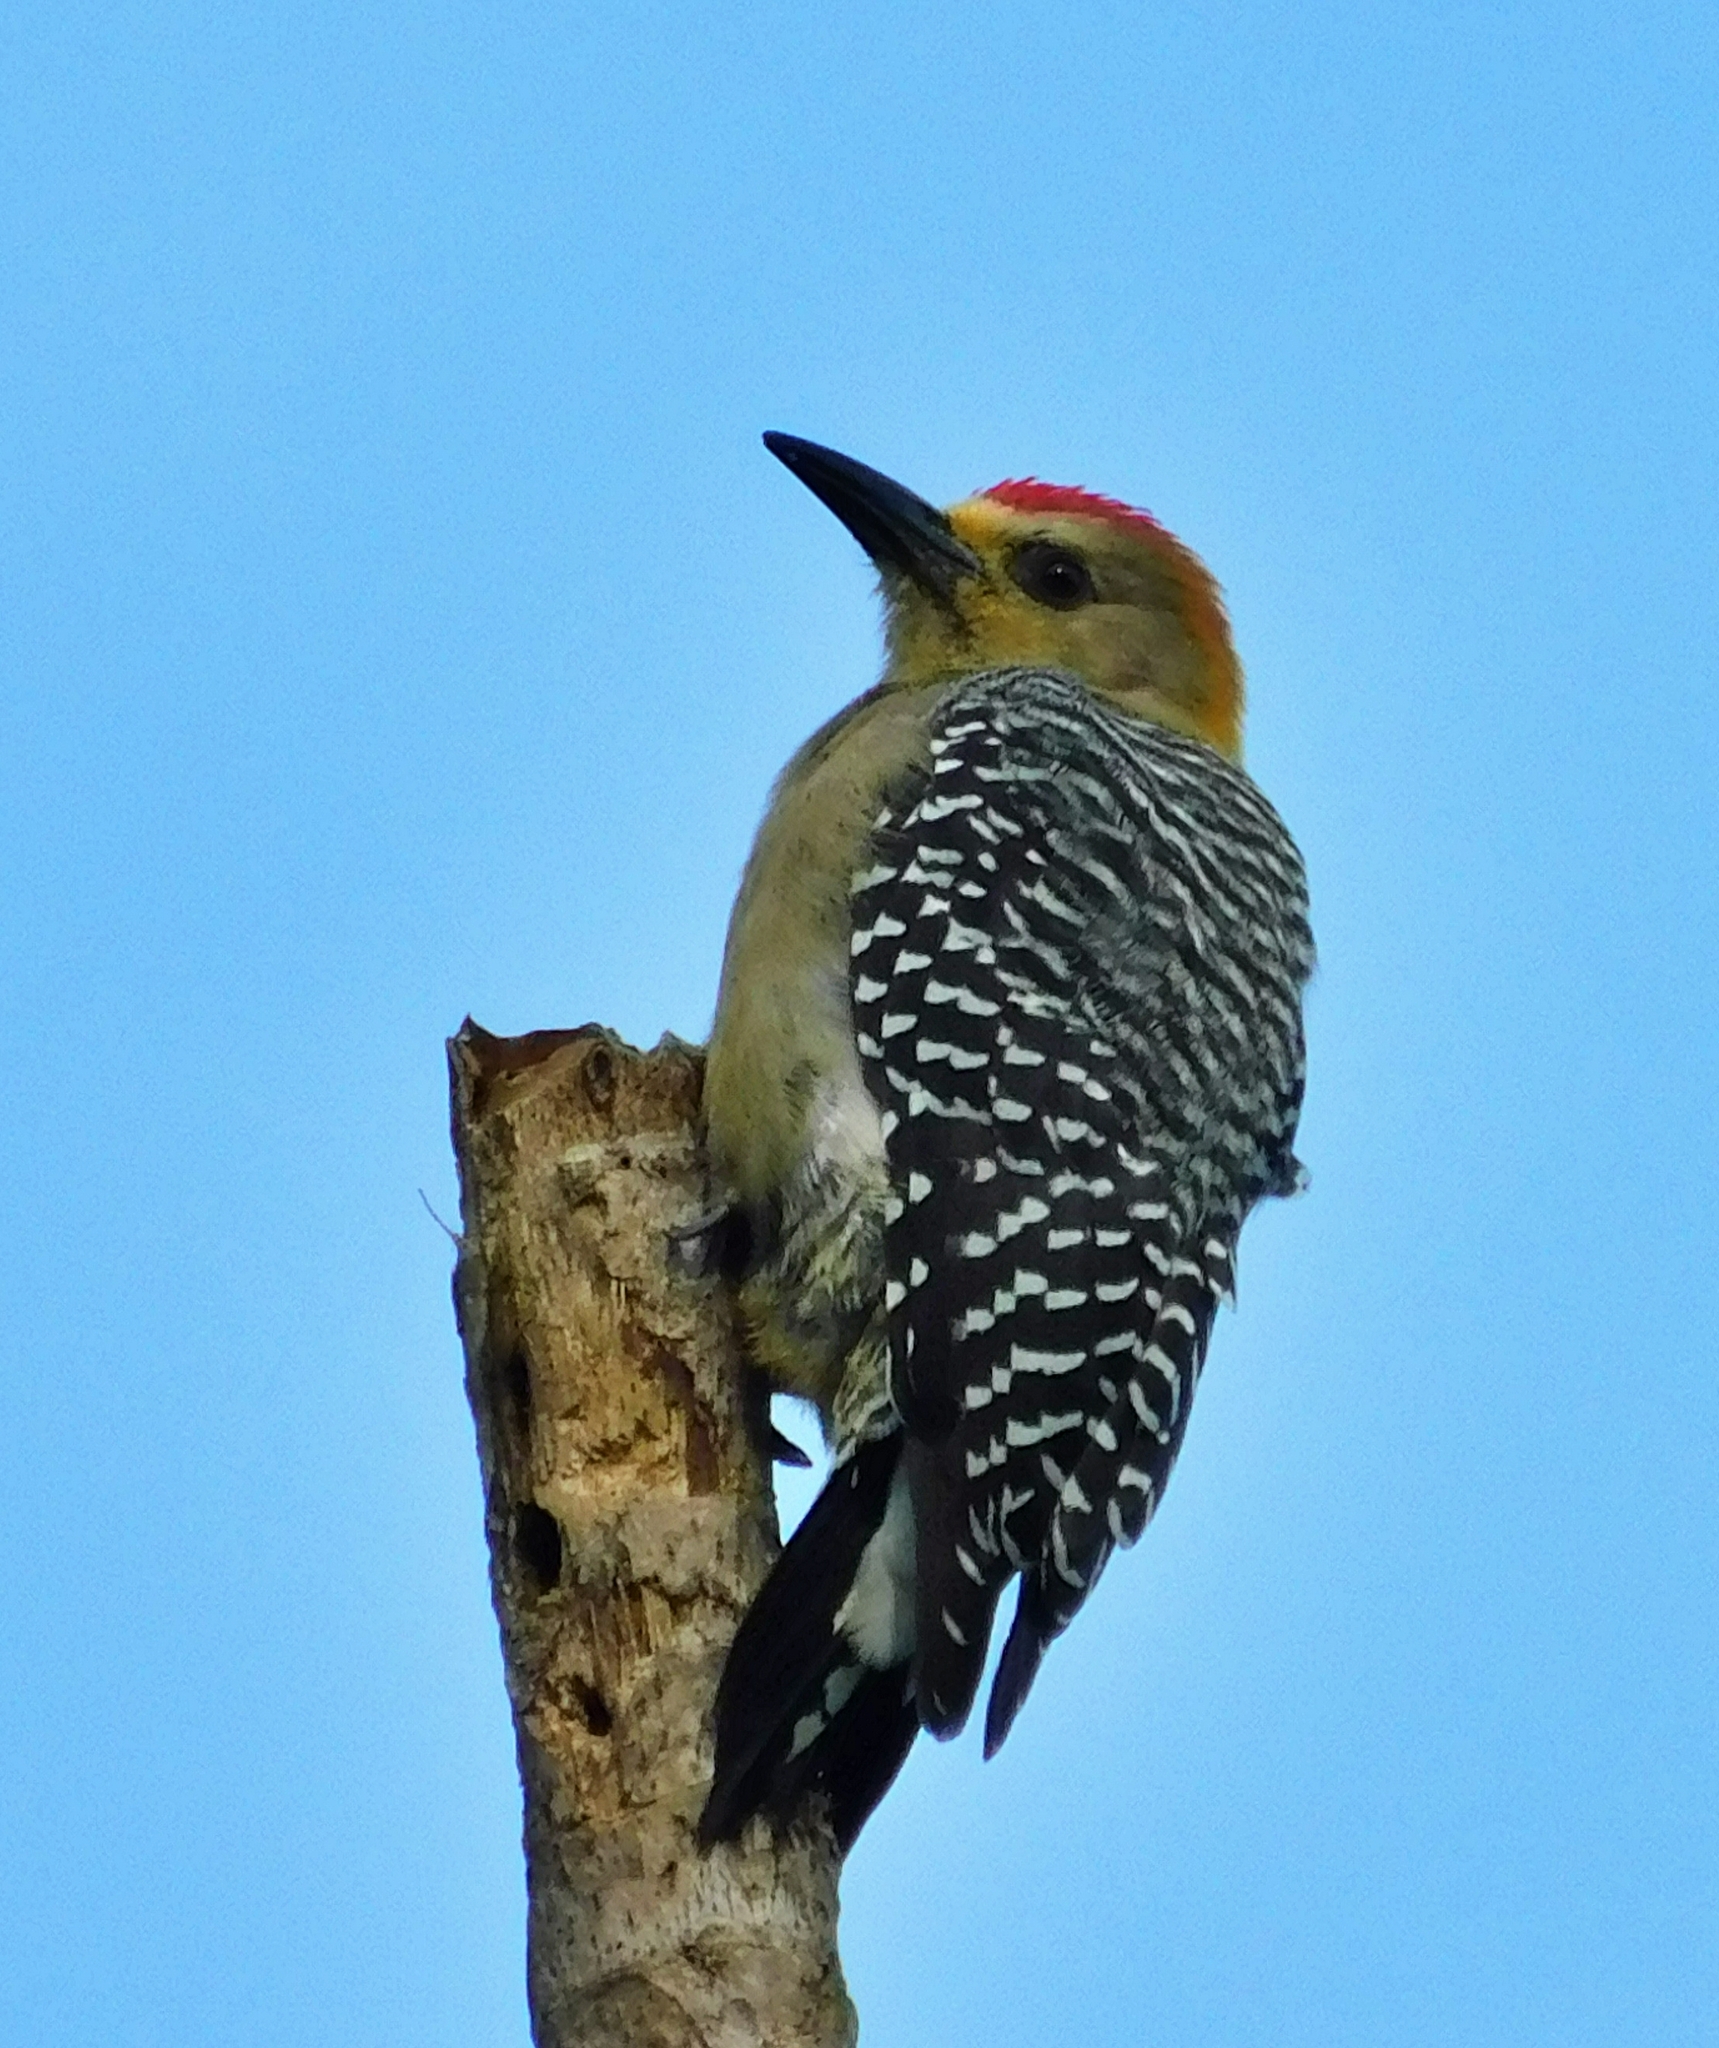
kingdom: Animalia
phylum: Chordata
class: Aves
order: Piciformes
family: Picidae
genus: Melanerpes
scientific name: Melanerpes hoffmannii
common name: Hoffmann's woodpecker
